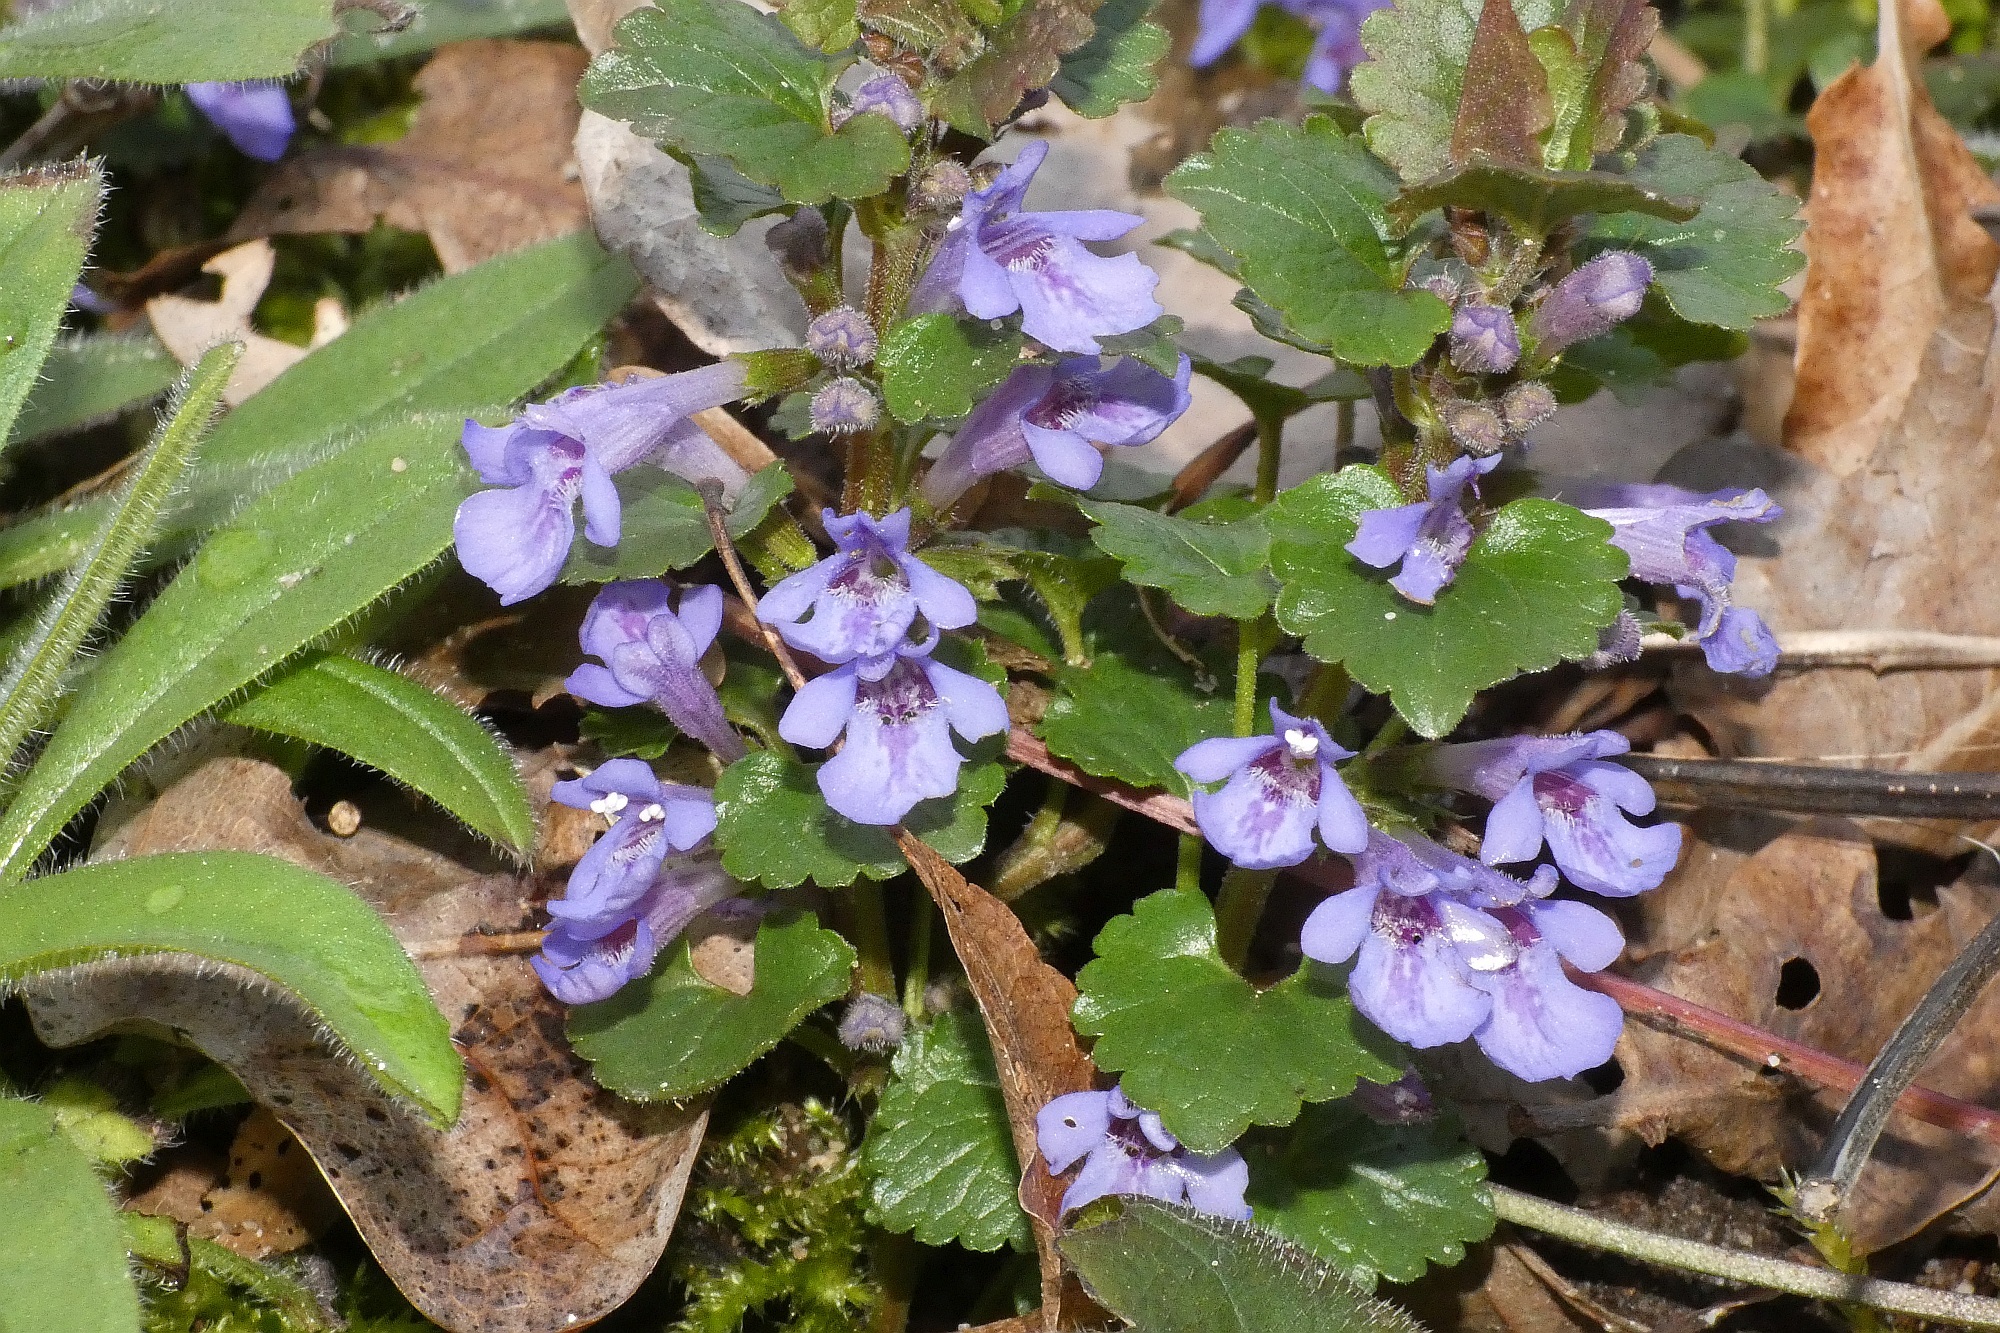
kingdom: Plantae
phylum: Tracheophyta
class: Magnoliopsida
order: Lamiales
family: Lamiaceae
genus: Glechoma
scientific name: Glechoma hederacea
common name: Ground ivy
